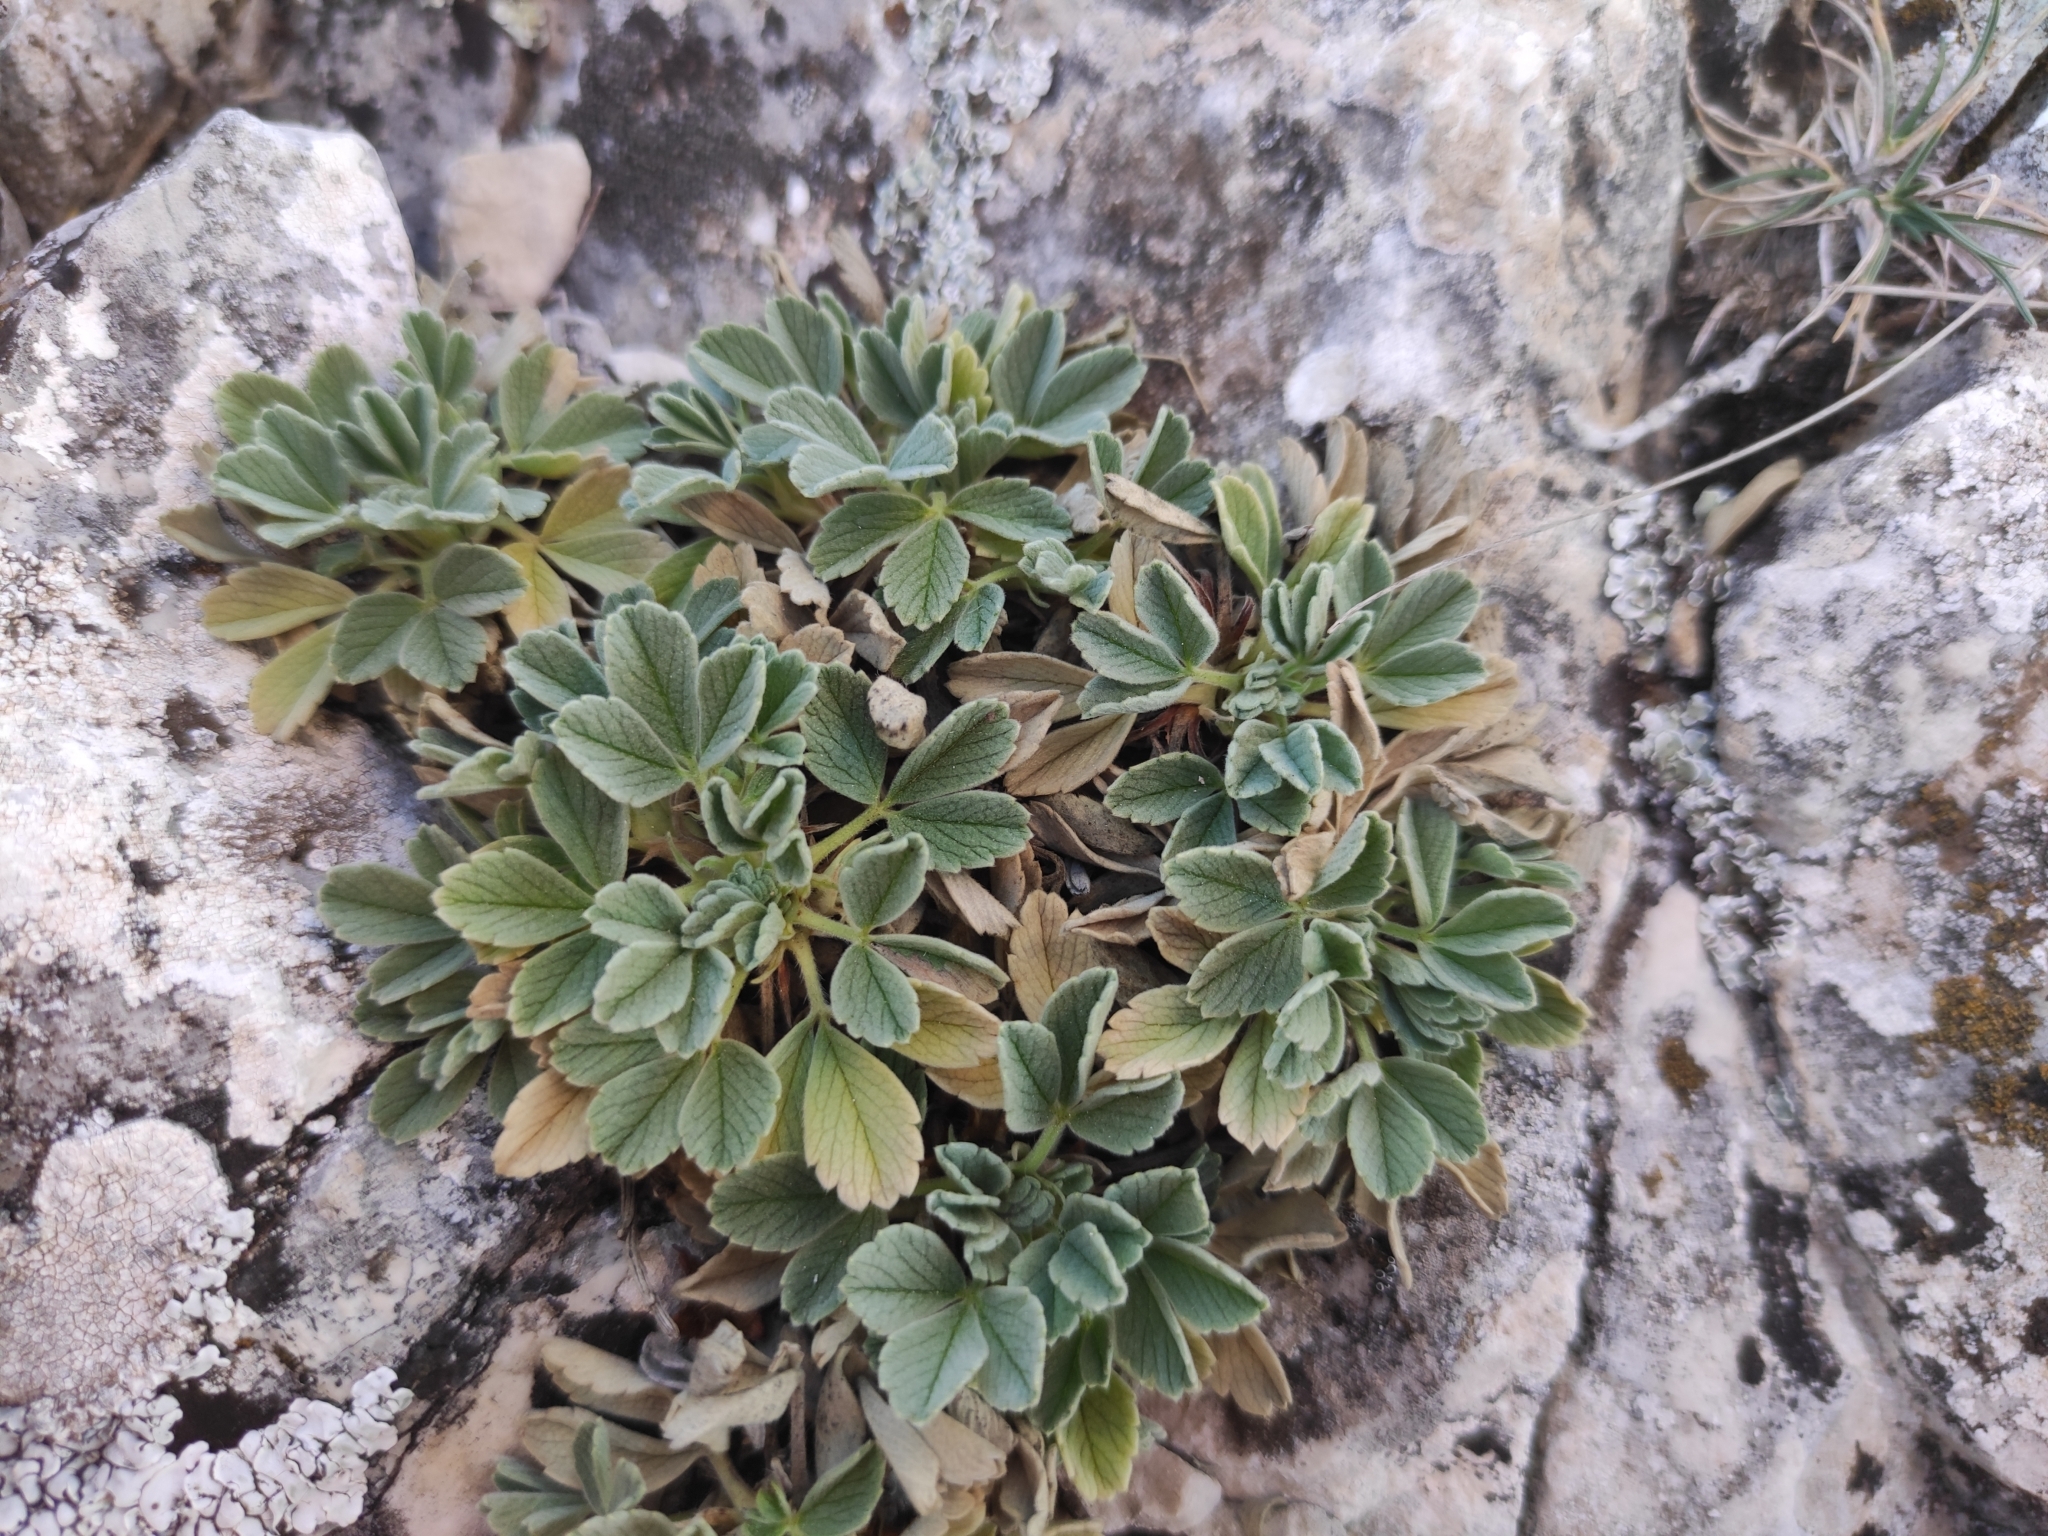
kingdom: Plantae
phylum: Tracheophyta
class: Magnoliopsida
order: Rosales
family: Rosaceae
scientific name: Rosaceae
